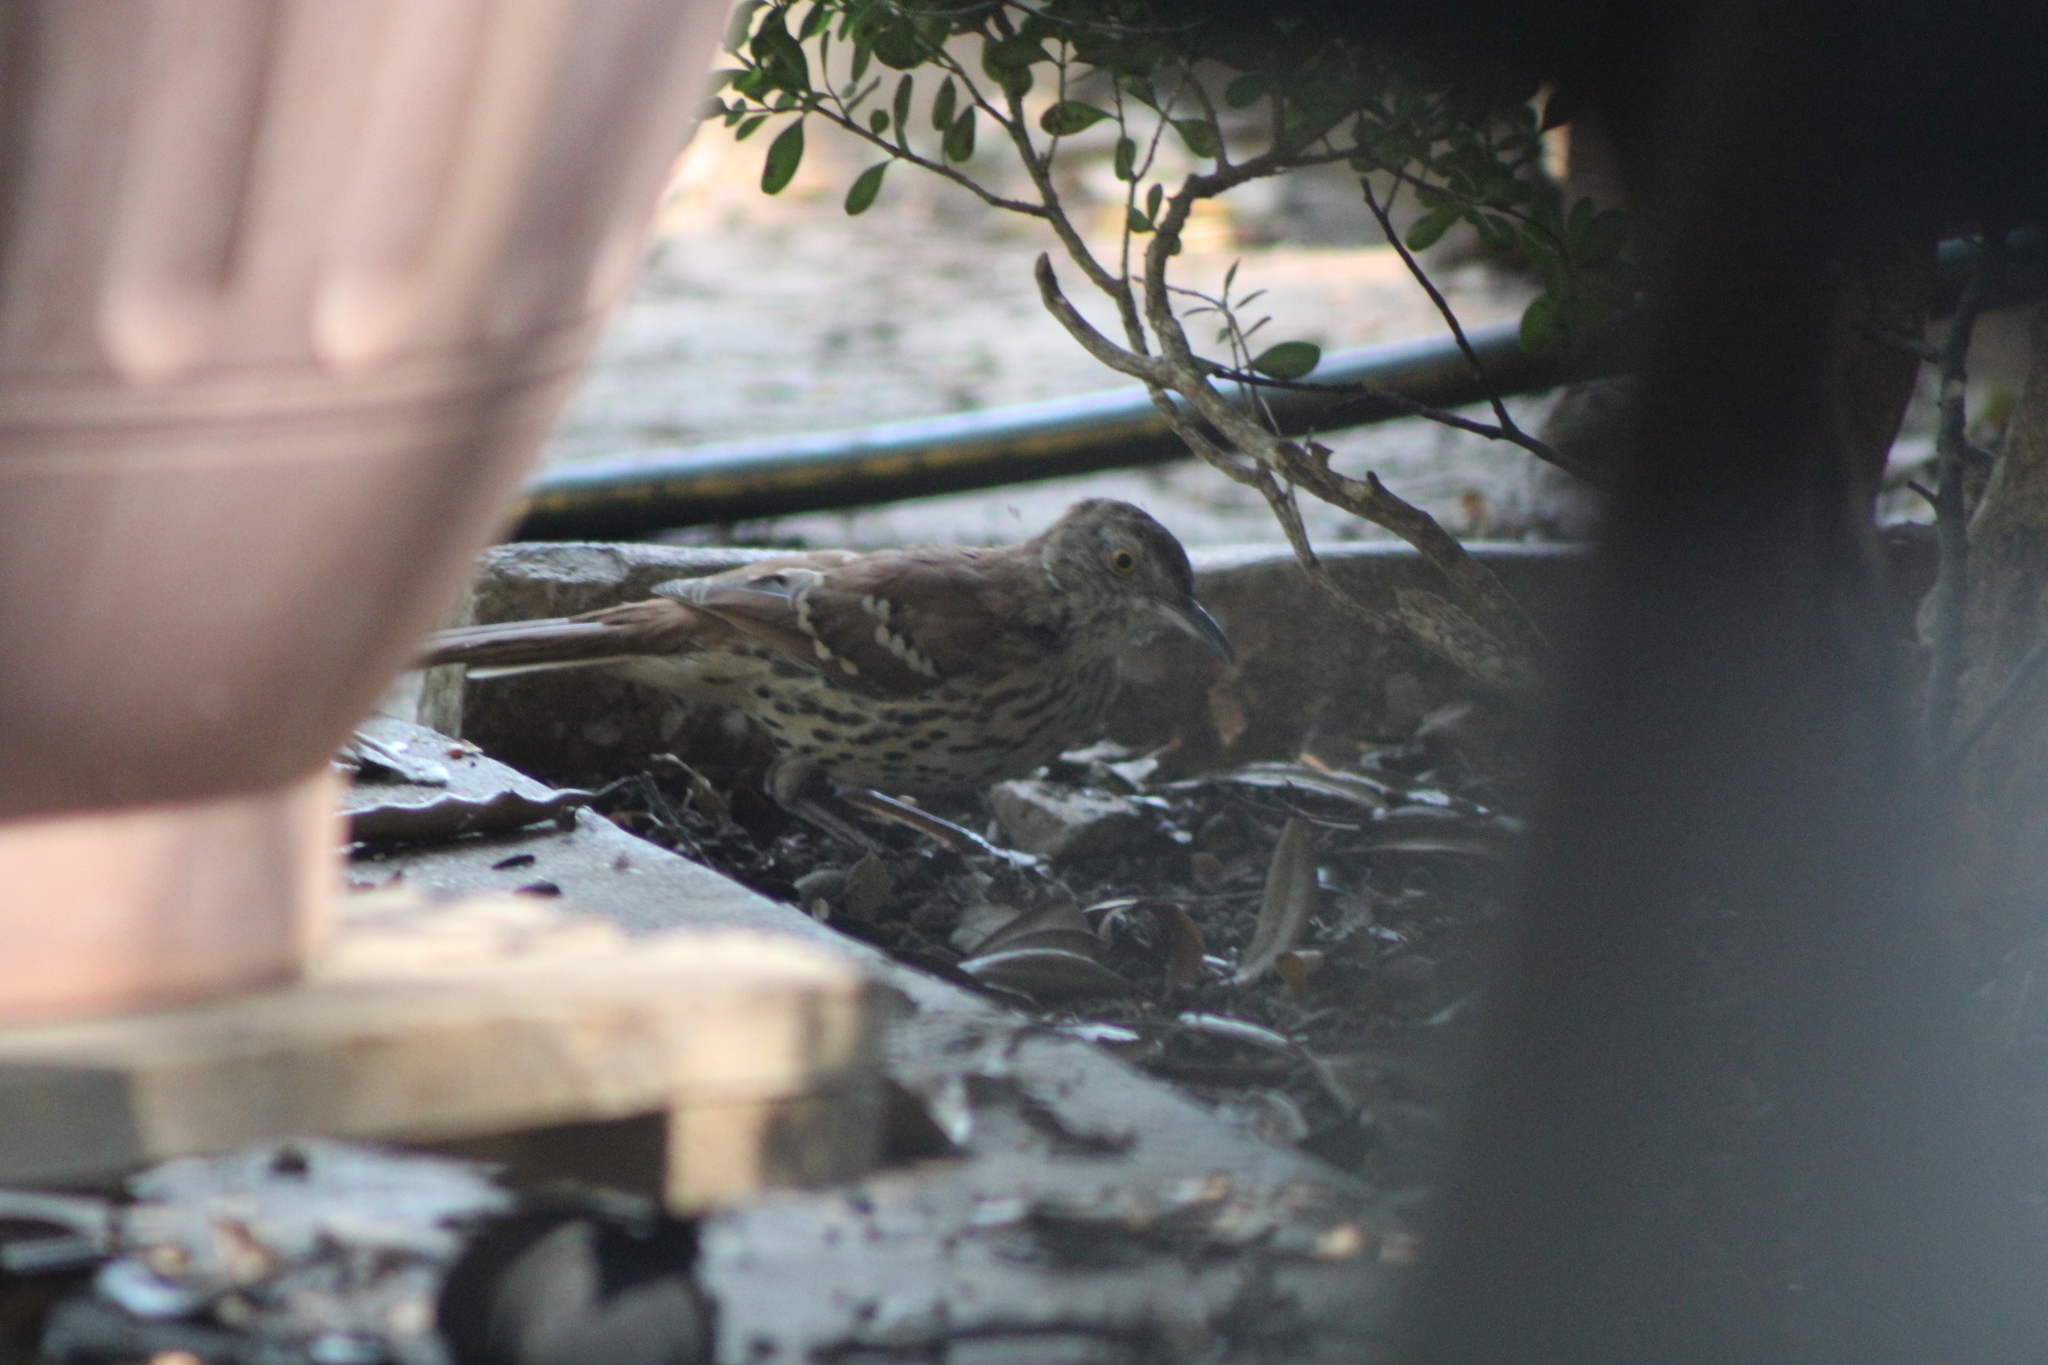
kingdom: Animalia
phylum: Chordata
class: Aves
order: Passeriformes
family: Mimidae
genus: Toxostoma
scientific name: Toxostoma rufum
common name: Brown thrasher
